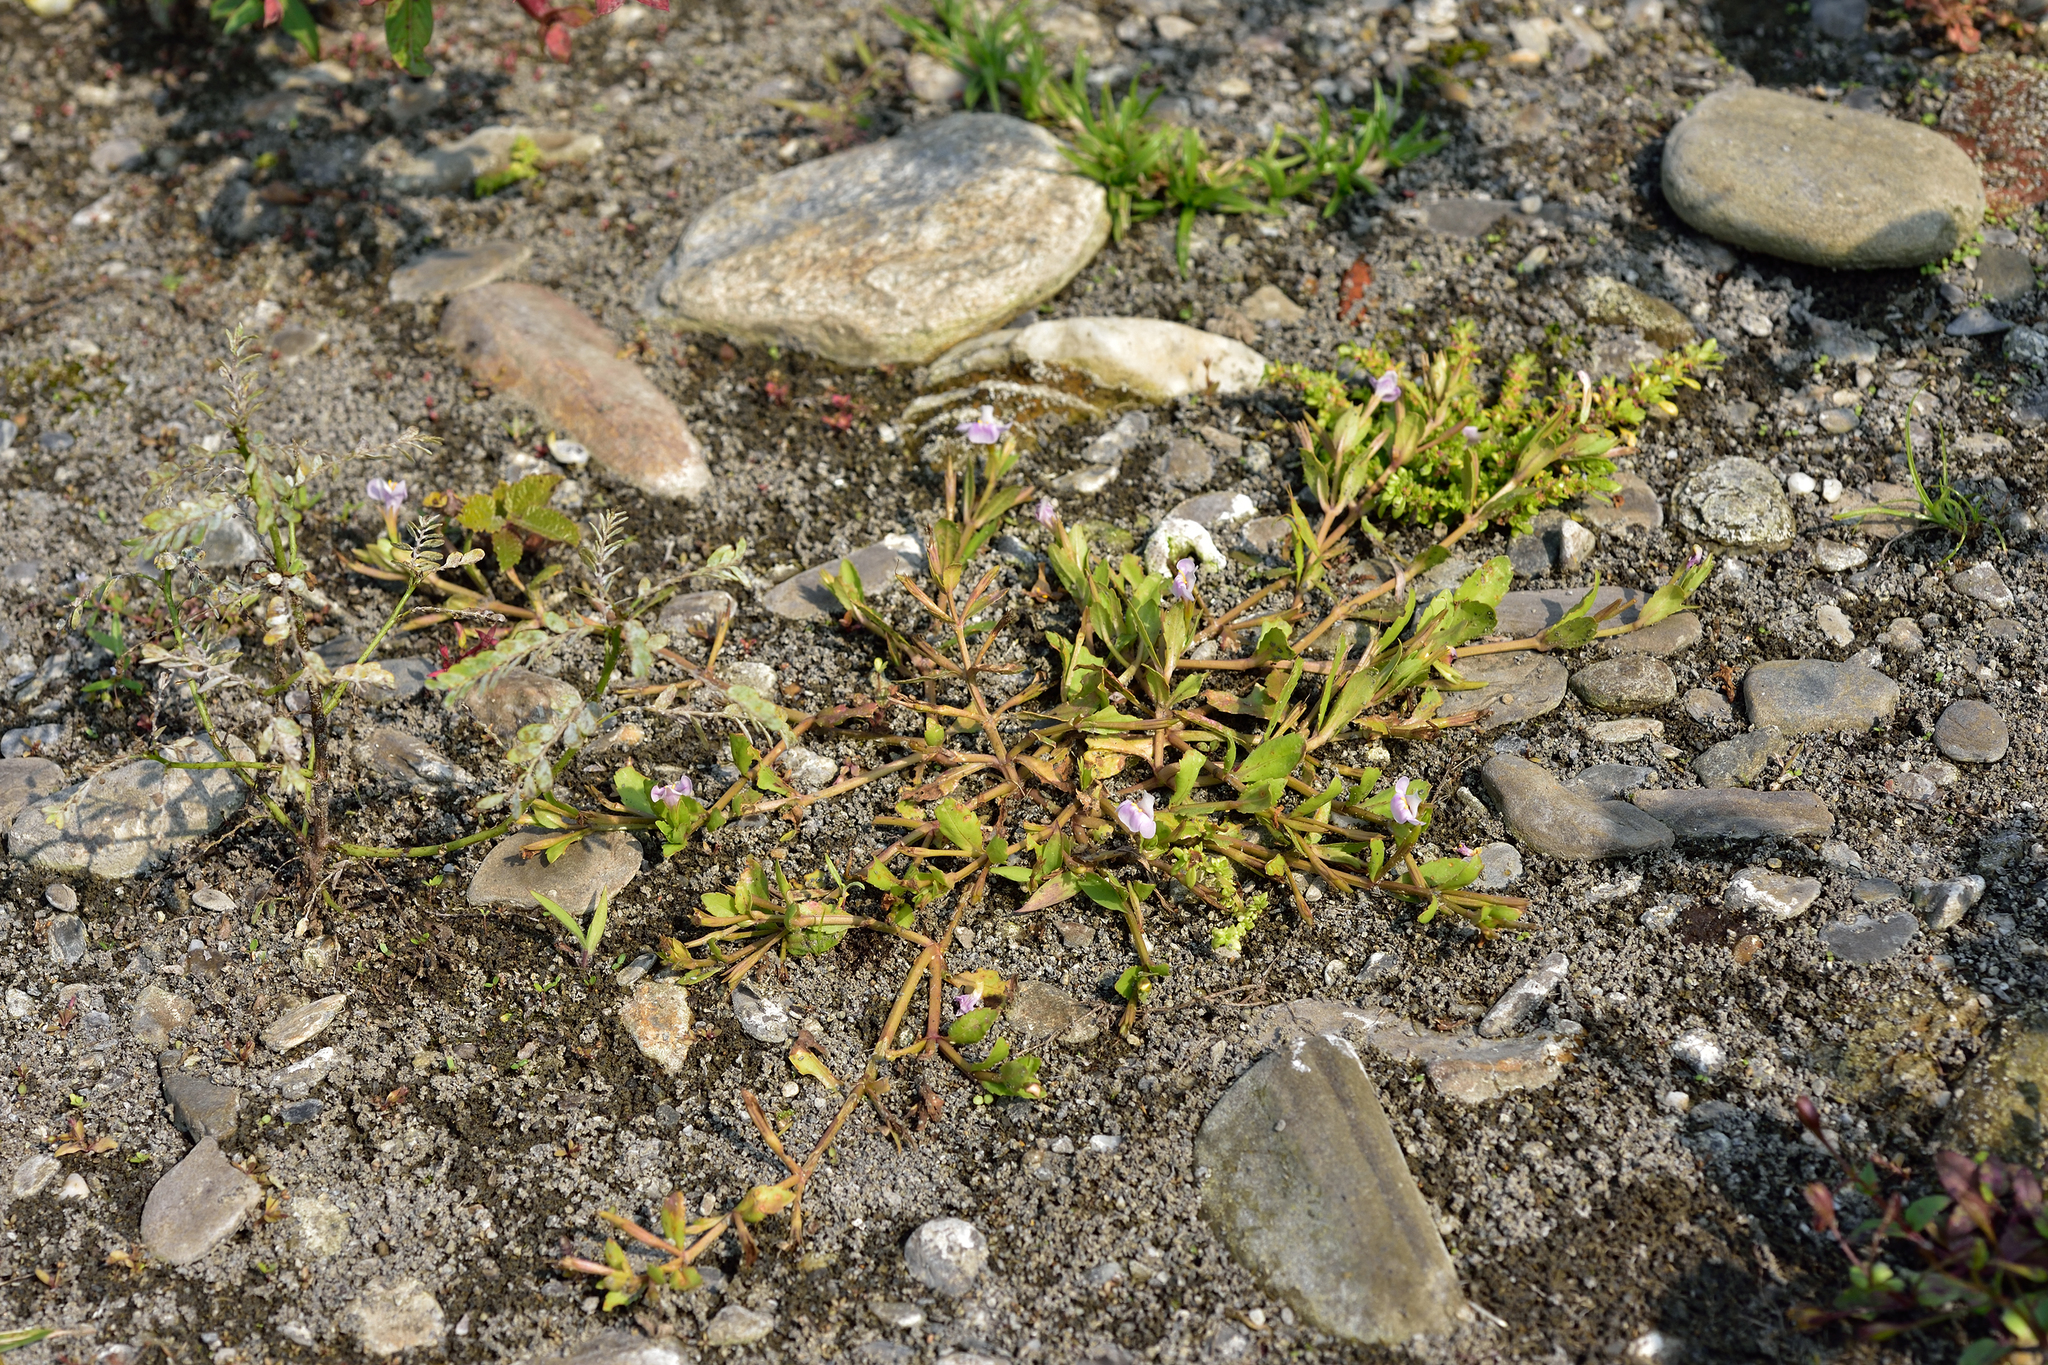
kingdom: Plantae
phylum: Tracheophyta
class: Magnoliopsida
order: Lamiales
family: Linderniaceae
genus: Bonnaya
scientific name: Bonnaya antipoda
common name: Sparrow false pimpernel
